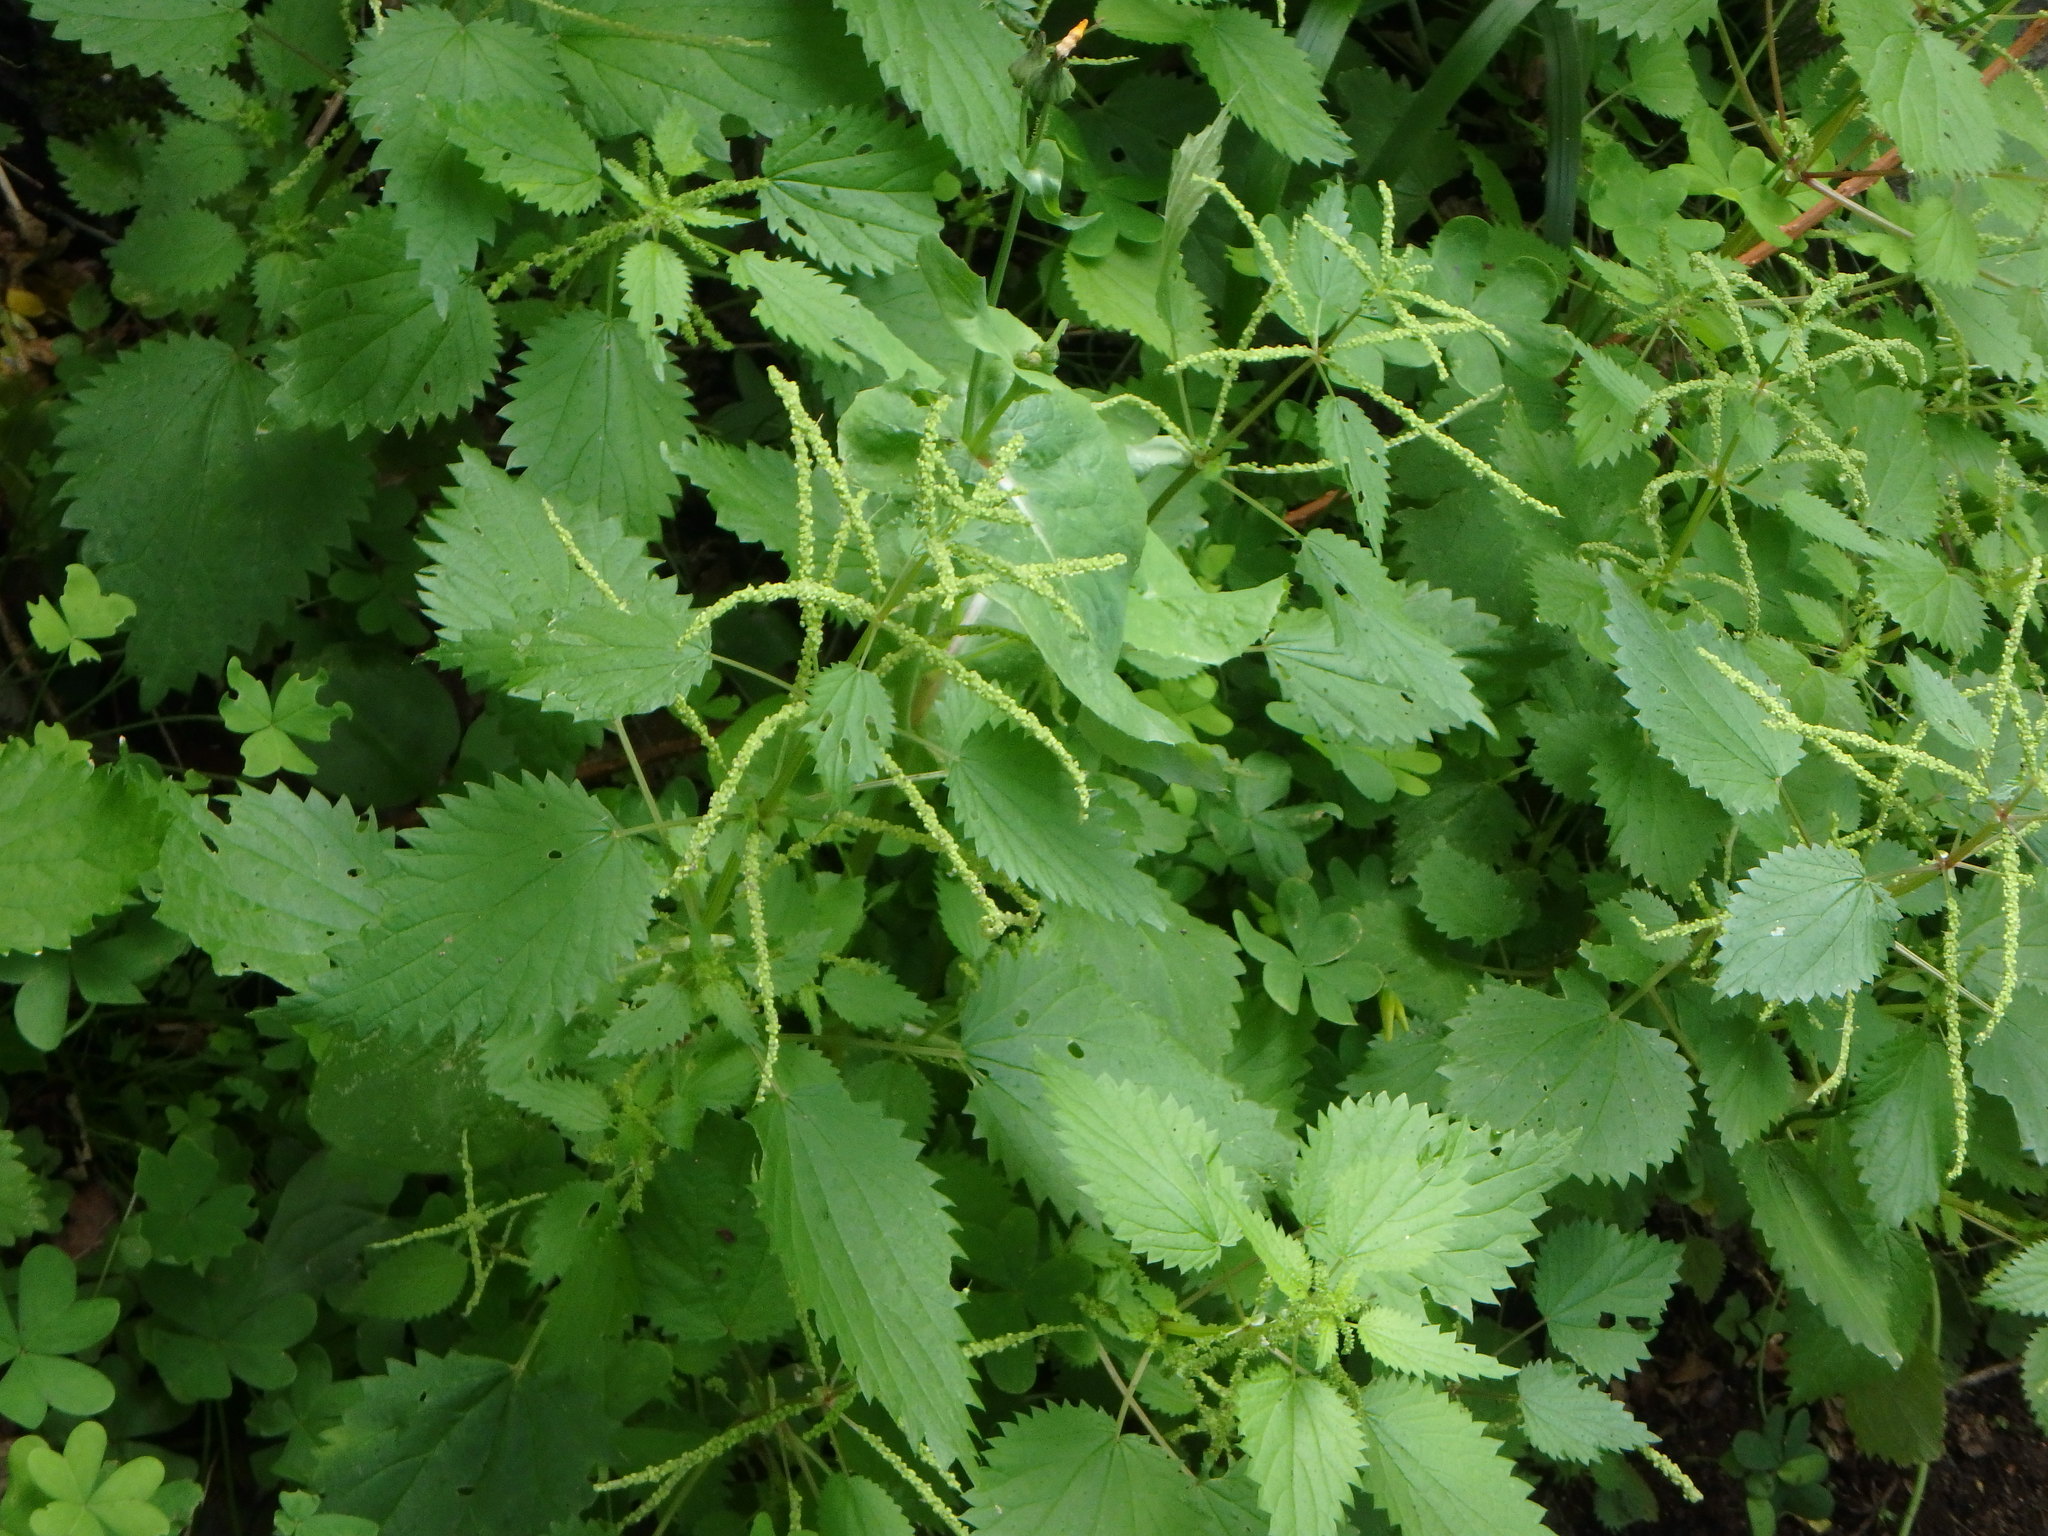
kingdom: Plantae
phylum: Tracheophyta
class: Magnoliopsida
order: Rosales
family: Urticaceae
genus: Urtica
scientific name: Urtica stachyoides
